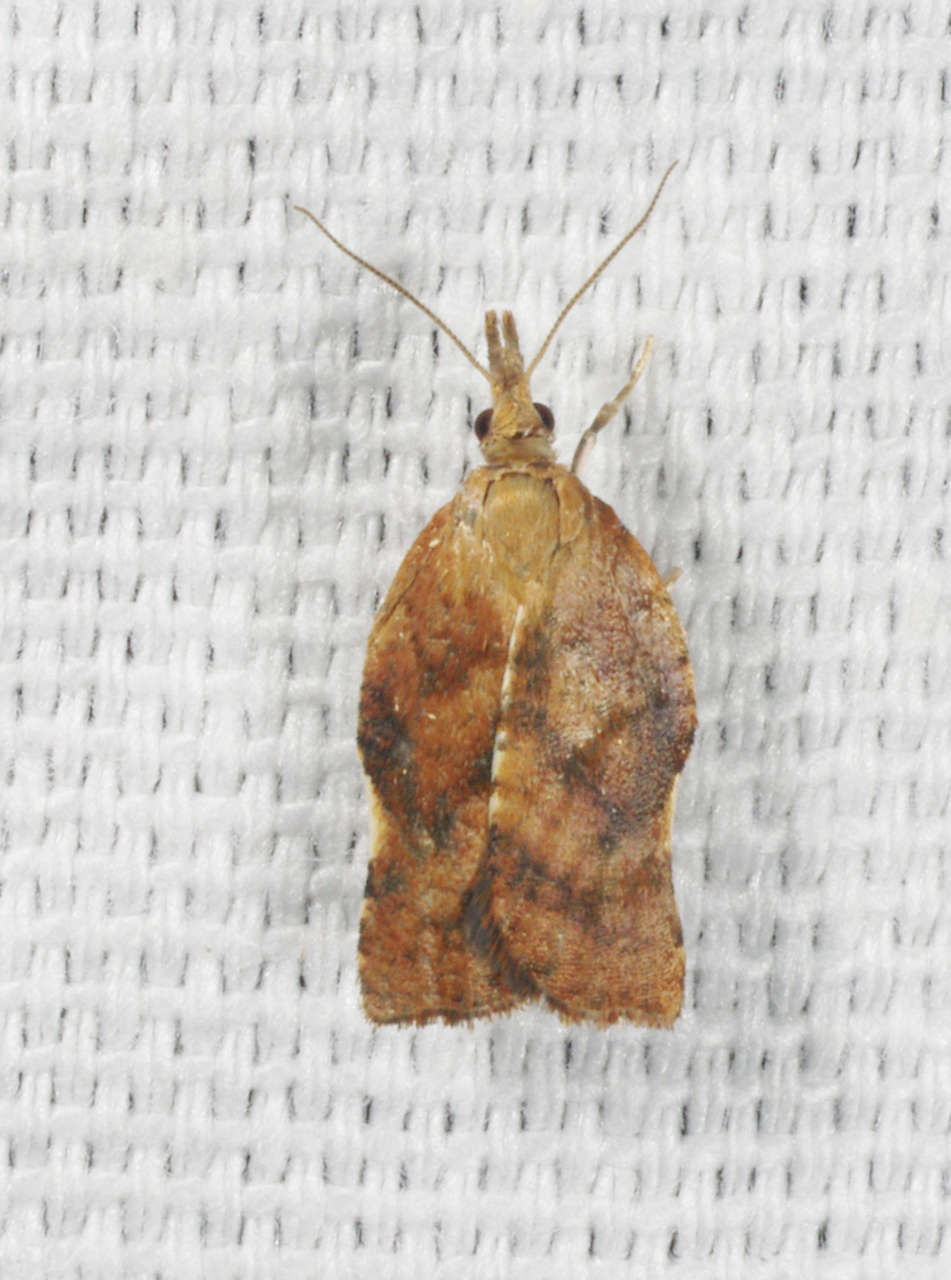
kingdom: Animalia
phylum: Arthropoda
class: Insecta
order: Lepidoptera
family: Tortricidae
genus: Coeloptera
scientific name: Coeloptera
